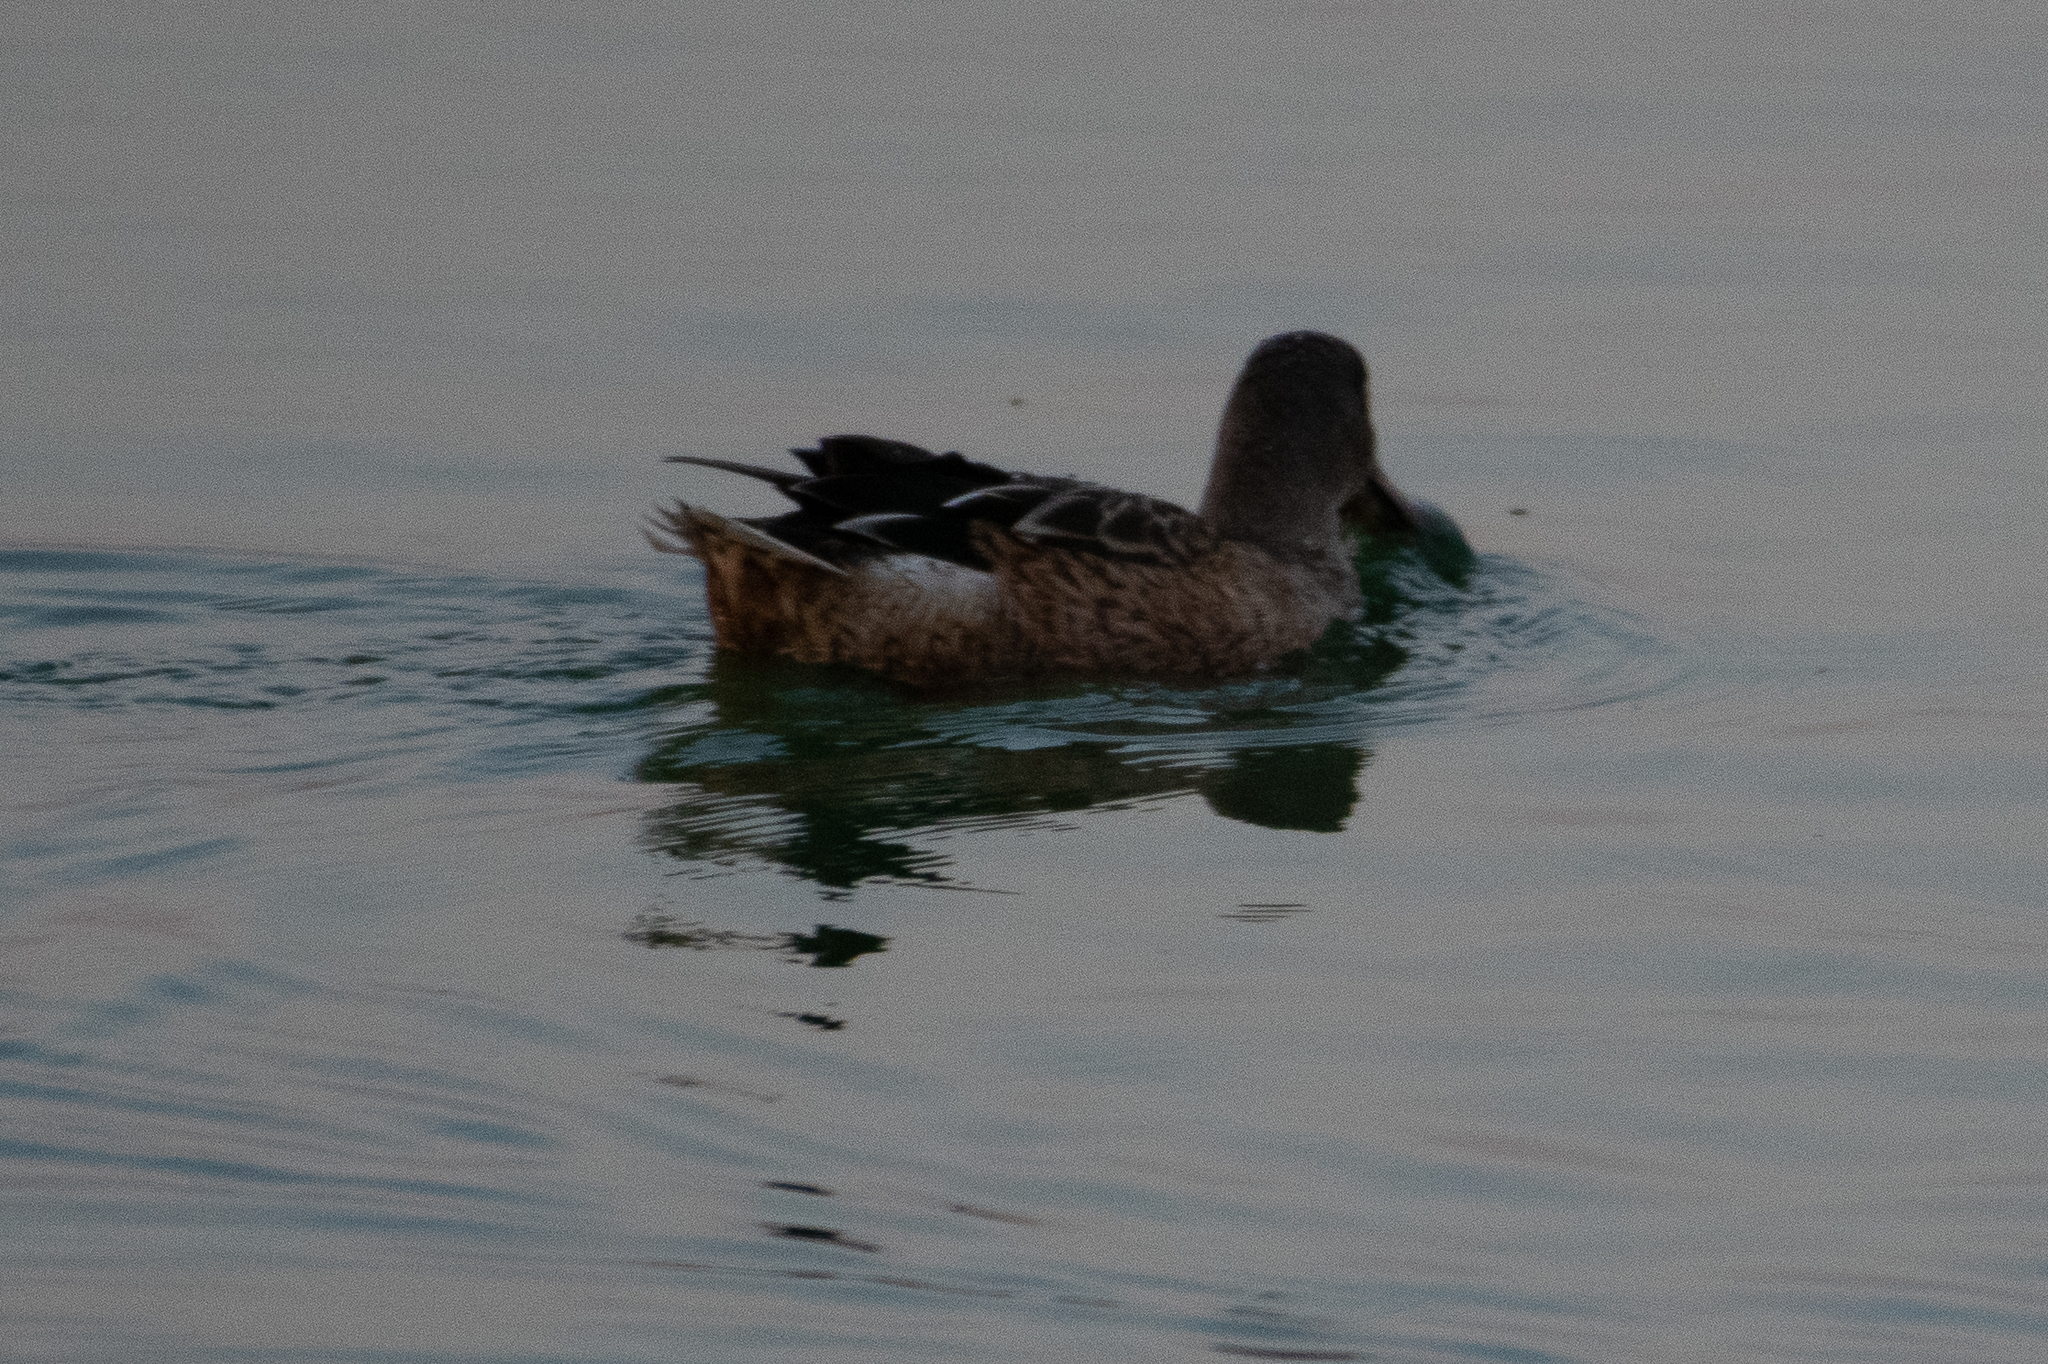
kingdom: Animalia
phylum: Chordata
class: Aves
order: Anseriformes
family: Anatidae
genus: Spatula
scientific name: Spatula clypeata
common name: Northern shoveler
